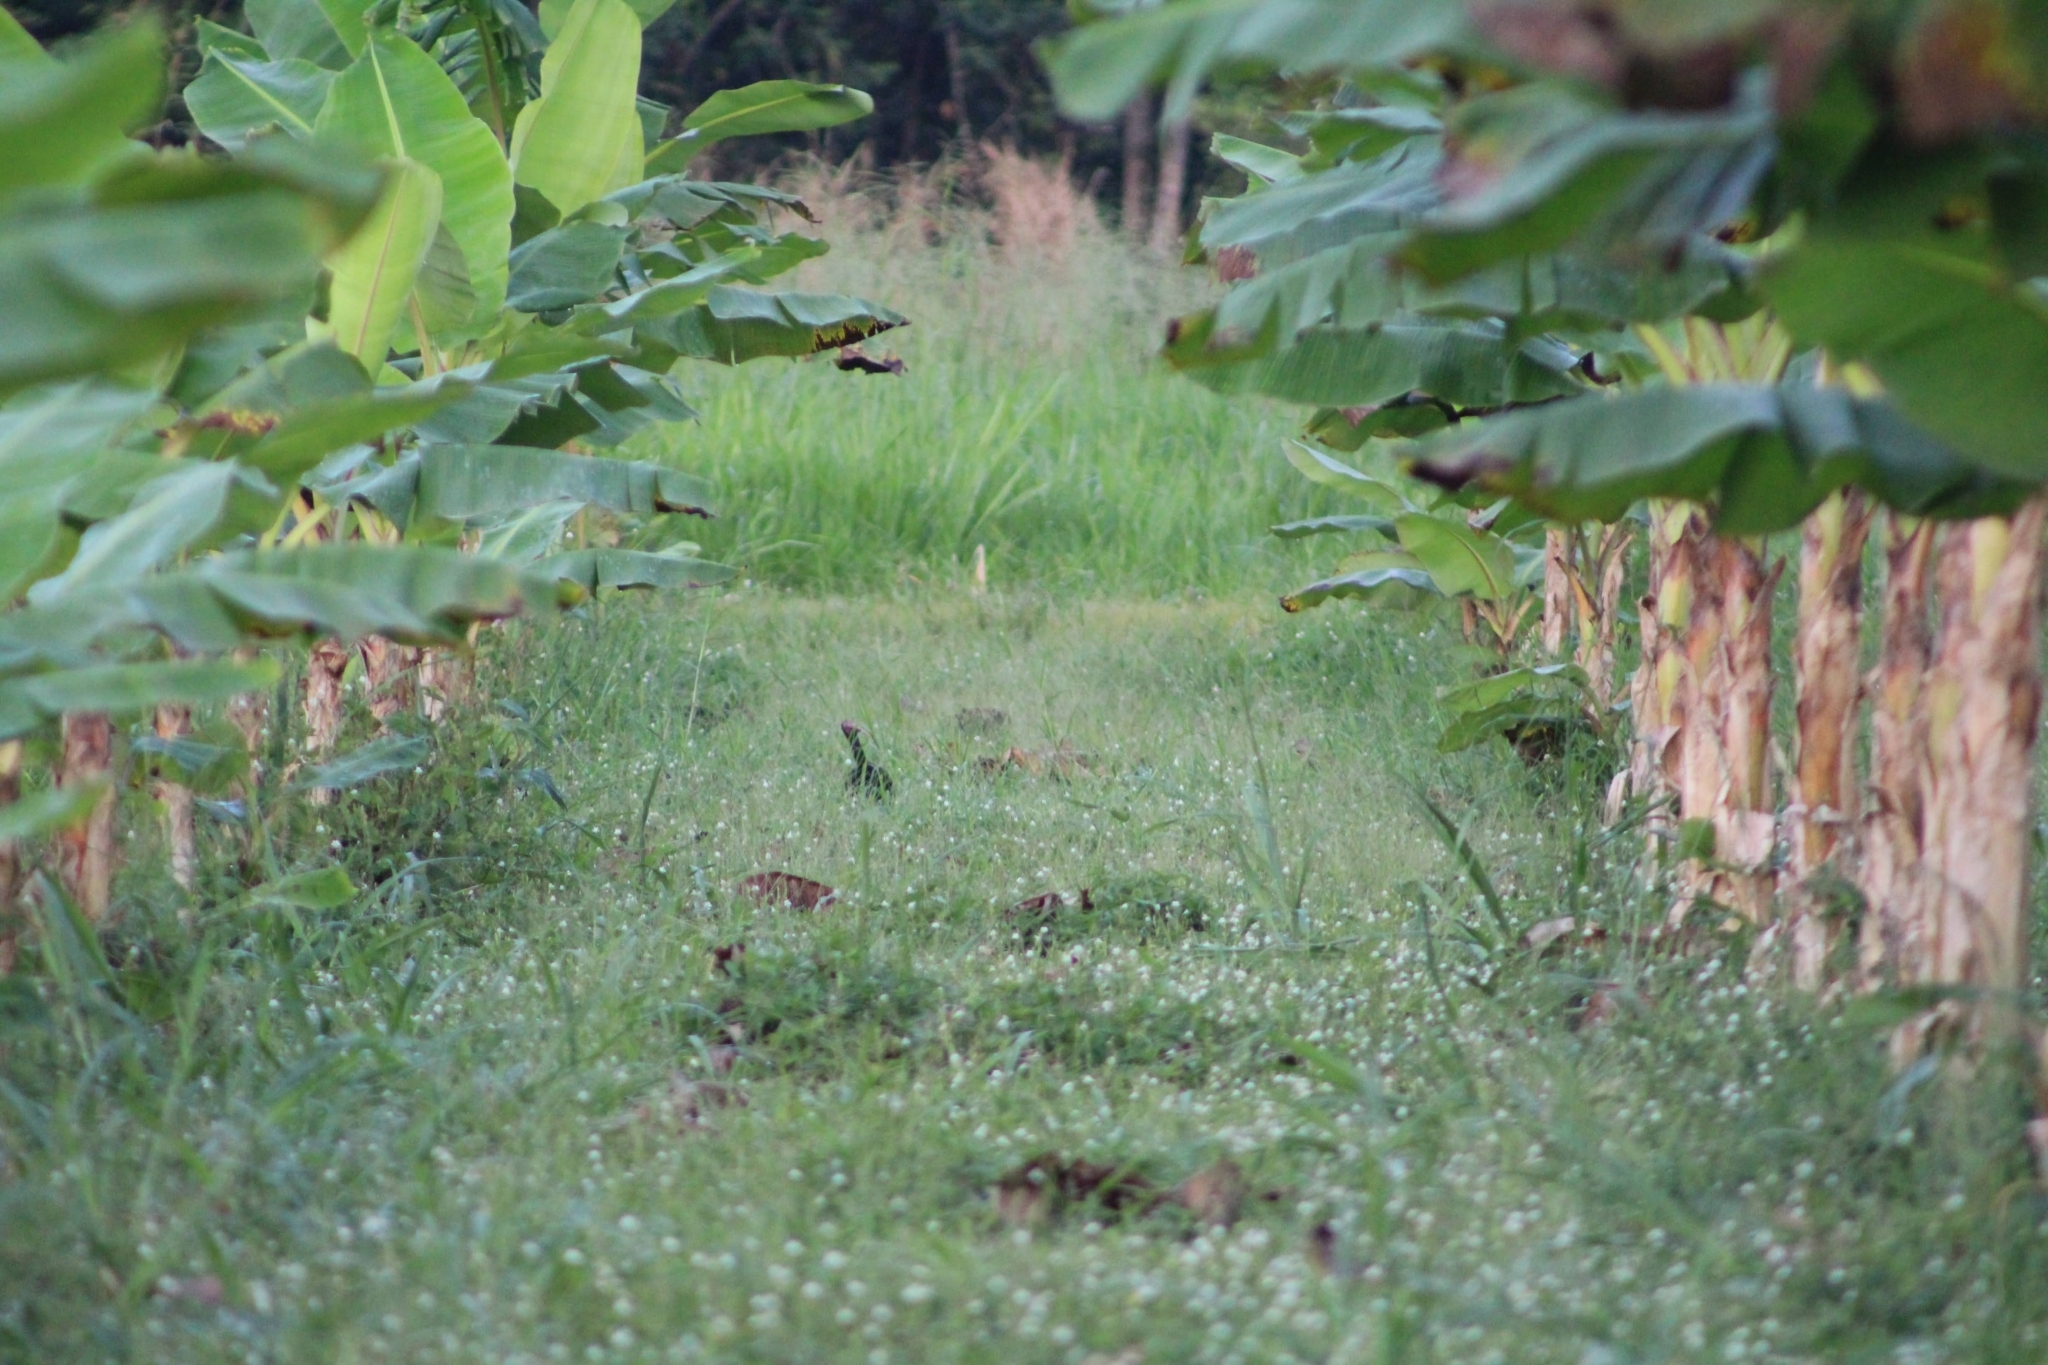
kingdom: Animalia
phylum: Chordata
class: Aves
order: Pelecaniformes
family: Threskiornithidae
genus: Phimosus
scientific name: Phimosus infuscatus
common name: Bare-faced ibis
